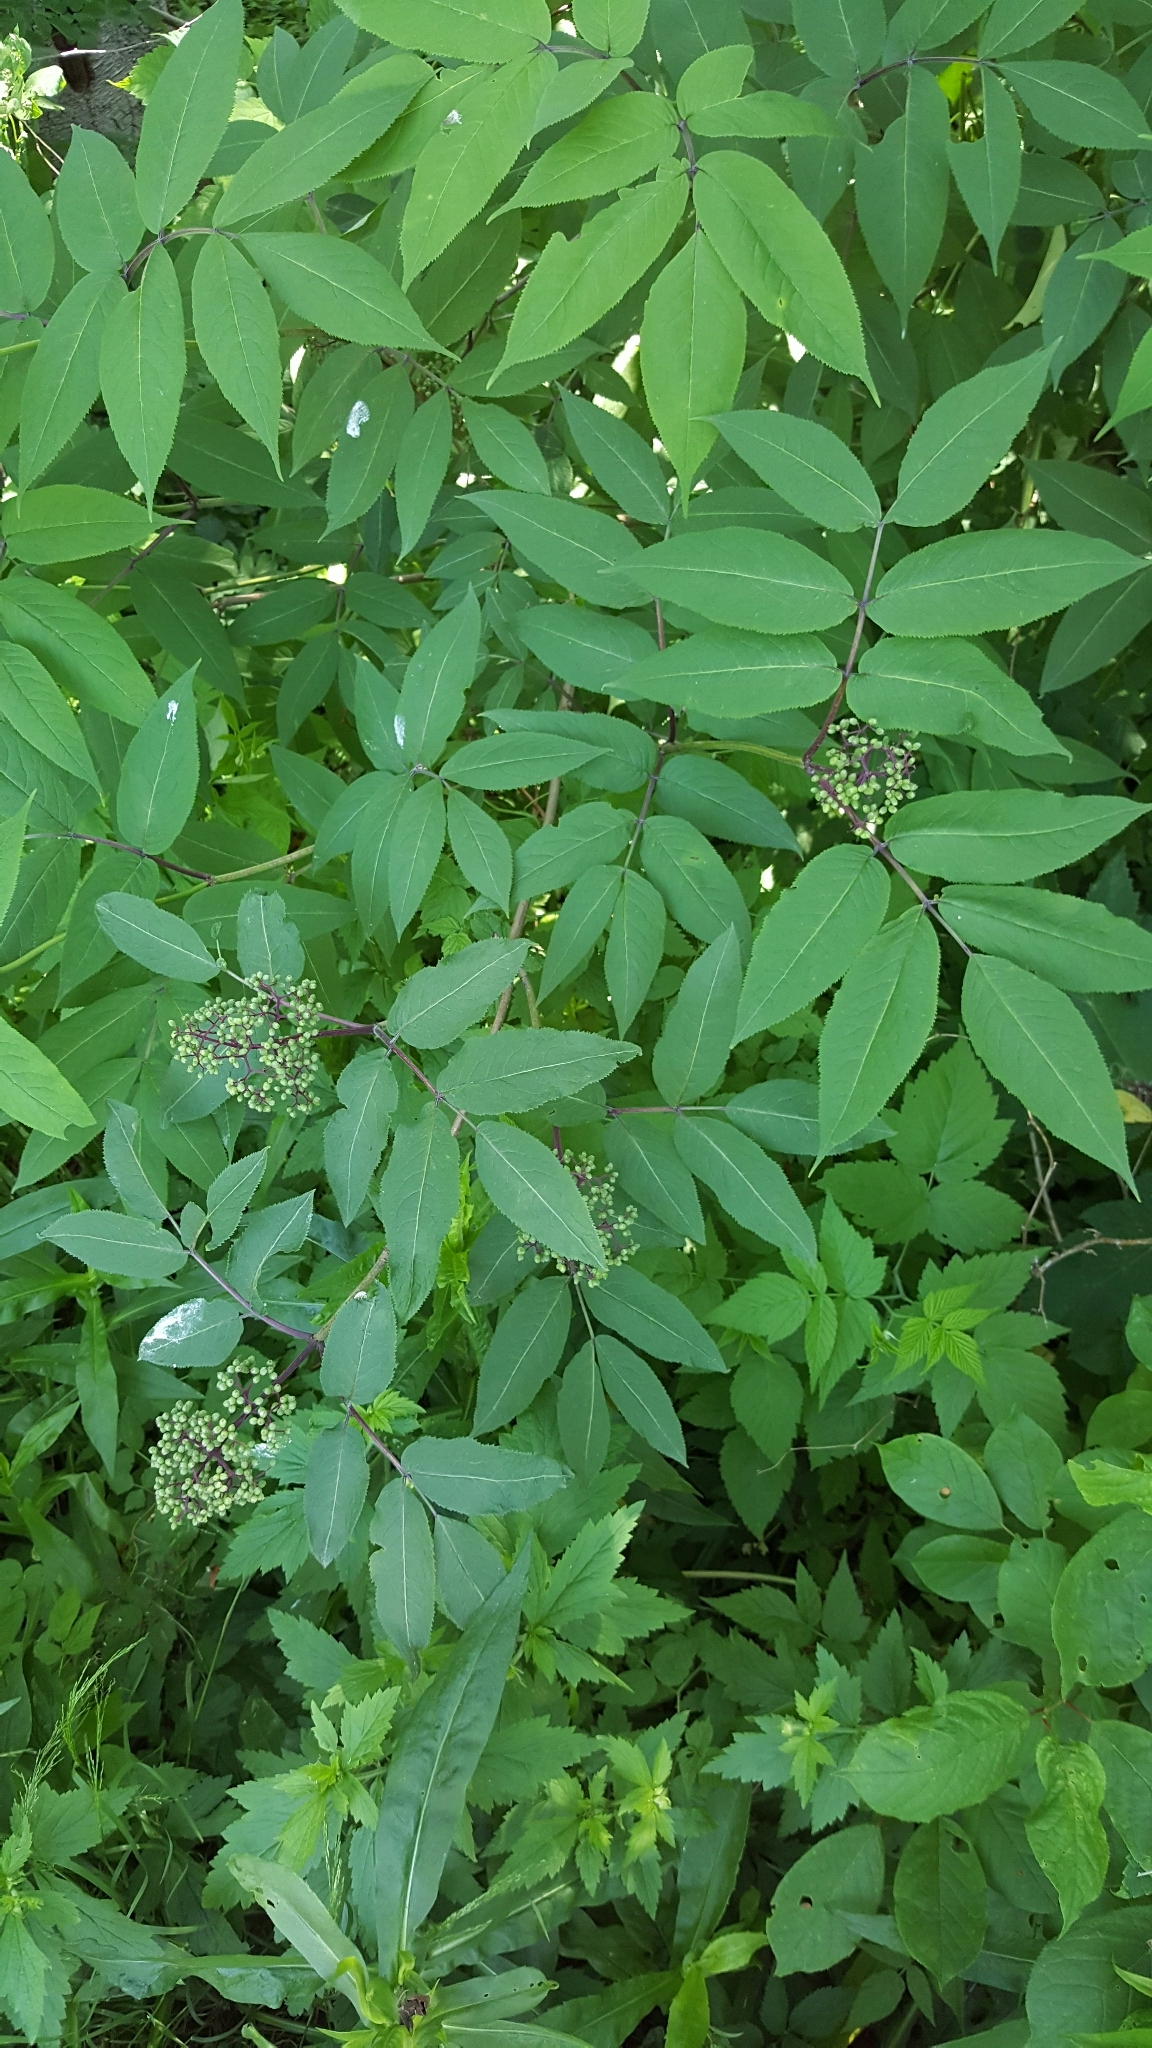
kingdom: Plantae
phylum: Tracheophyta
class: Magnoliopsida
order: Dipsacales
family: Viburnaceae
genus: Sambucus
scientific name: Sambucus racemosa
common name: Red-berried elder
